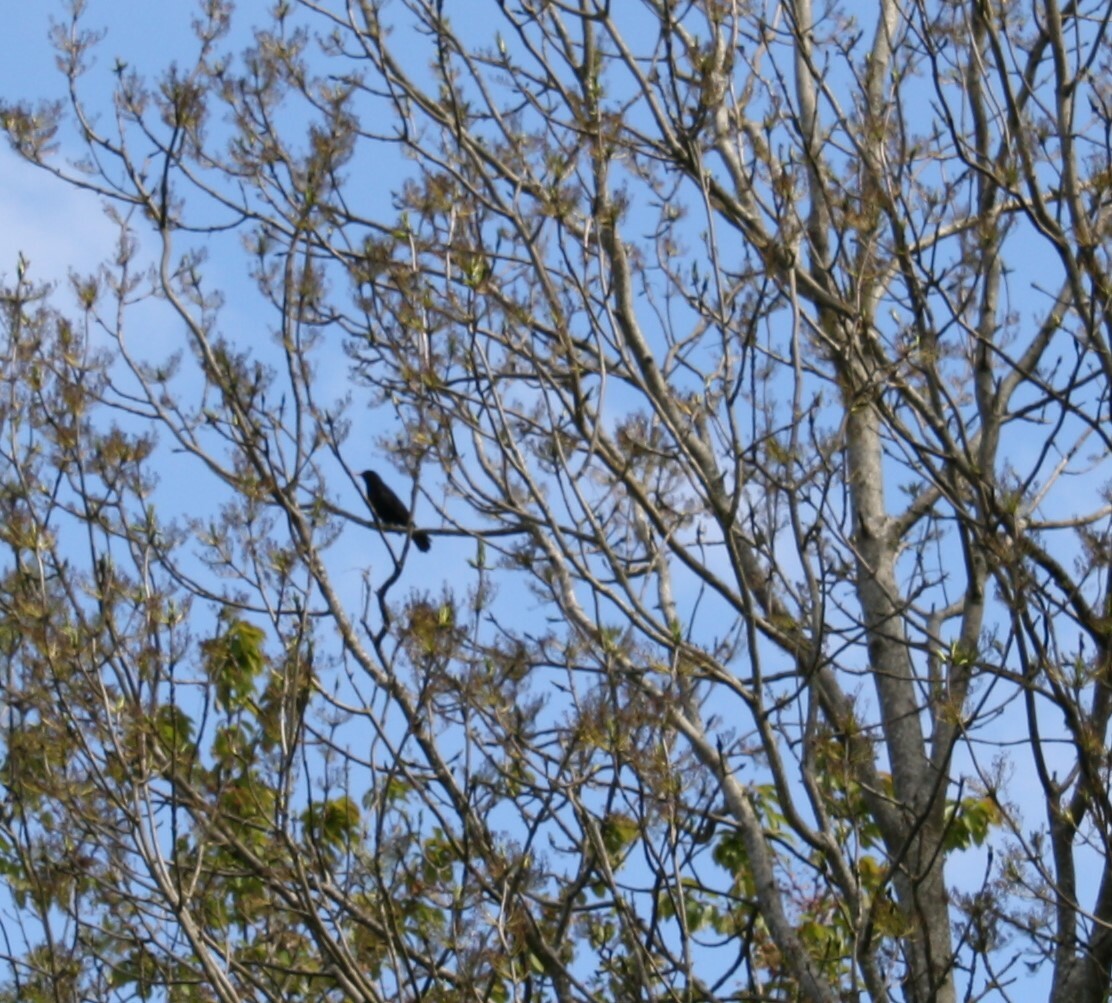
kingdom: Animalia
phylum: Chordata
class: Aves
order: Passeriformes
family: Turdidae
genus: Turdus
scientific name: Turdus merula
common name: Common blackbird
